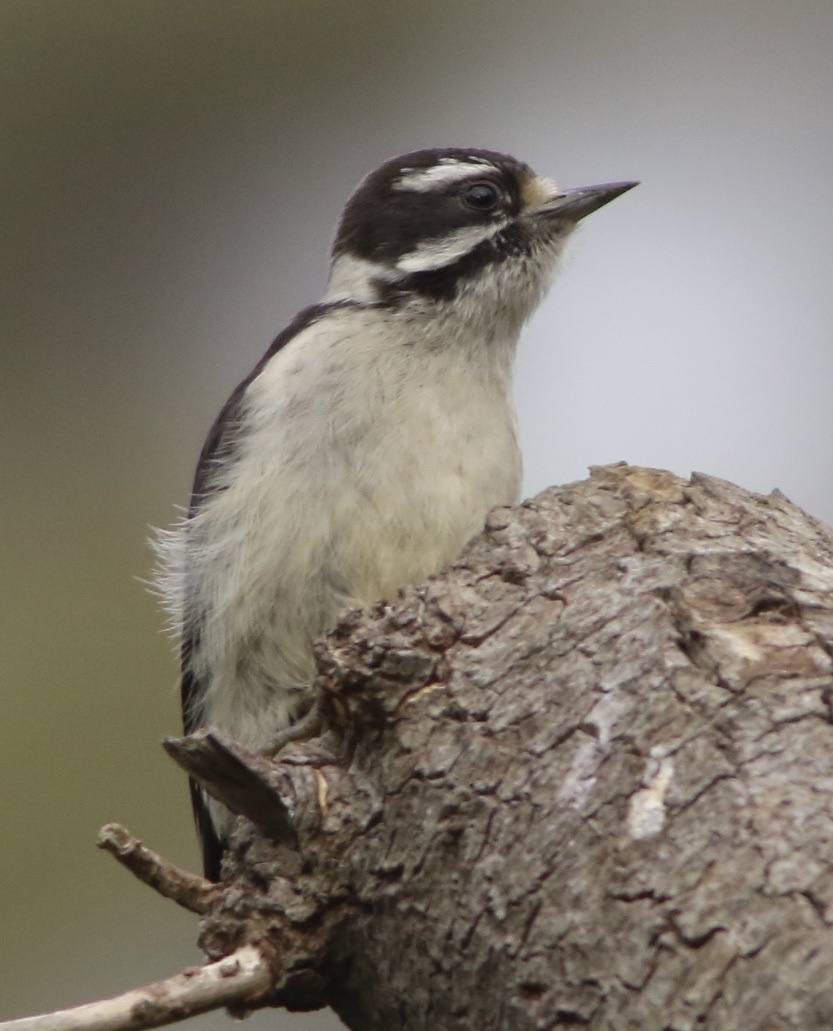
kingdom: Animalia
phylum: Chordata
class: Aves
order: Piciformes
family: Picidae
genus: Dryobates
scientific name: Dryobates pubescens
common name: Downy woodpecker
